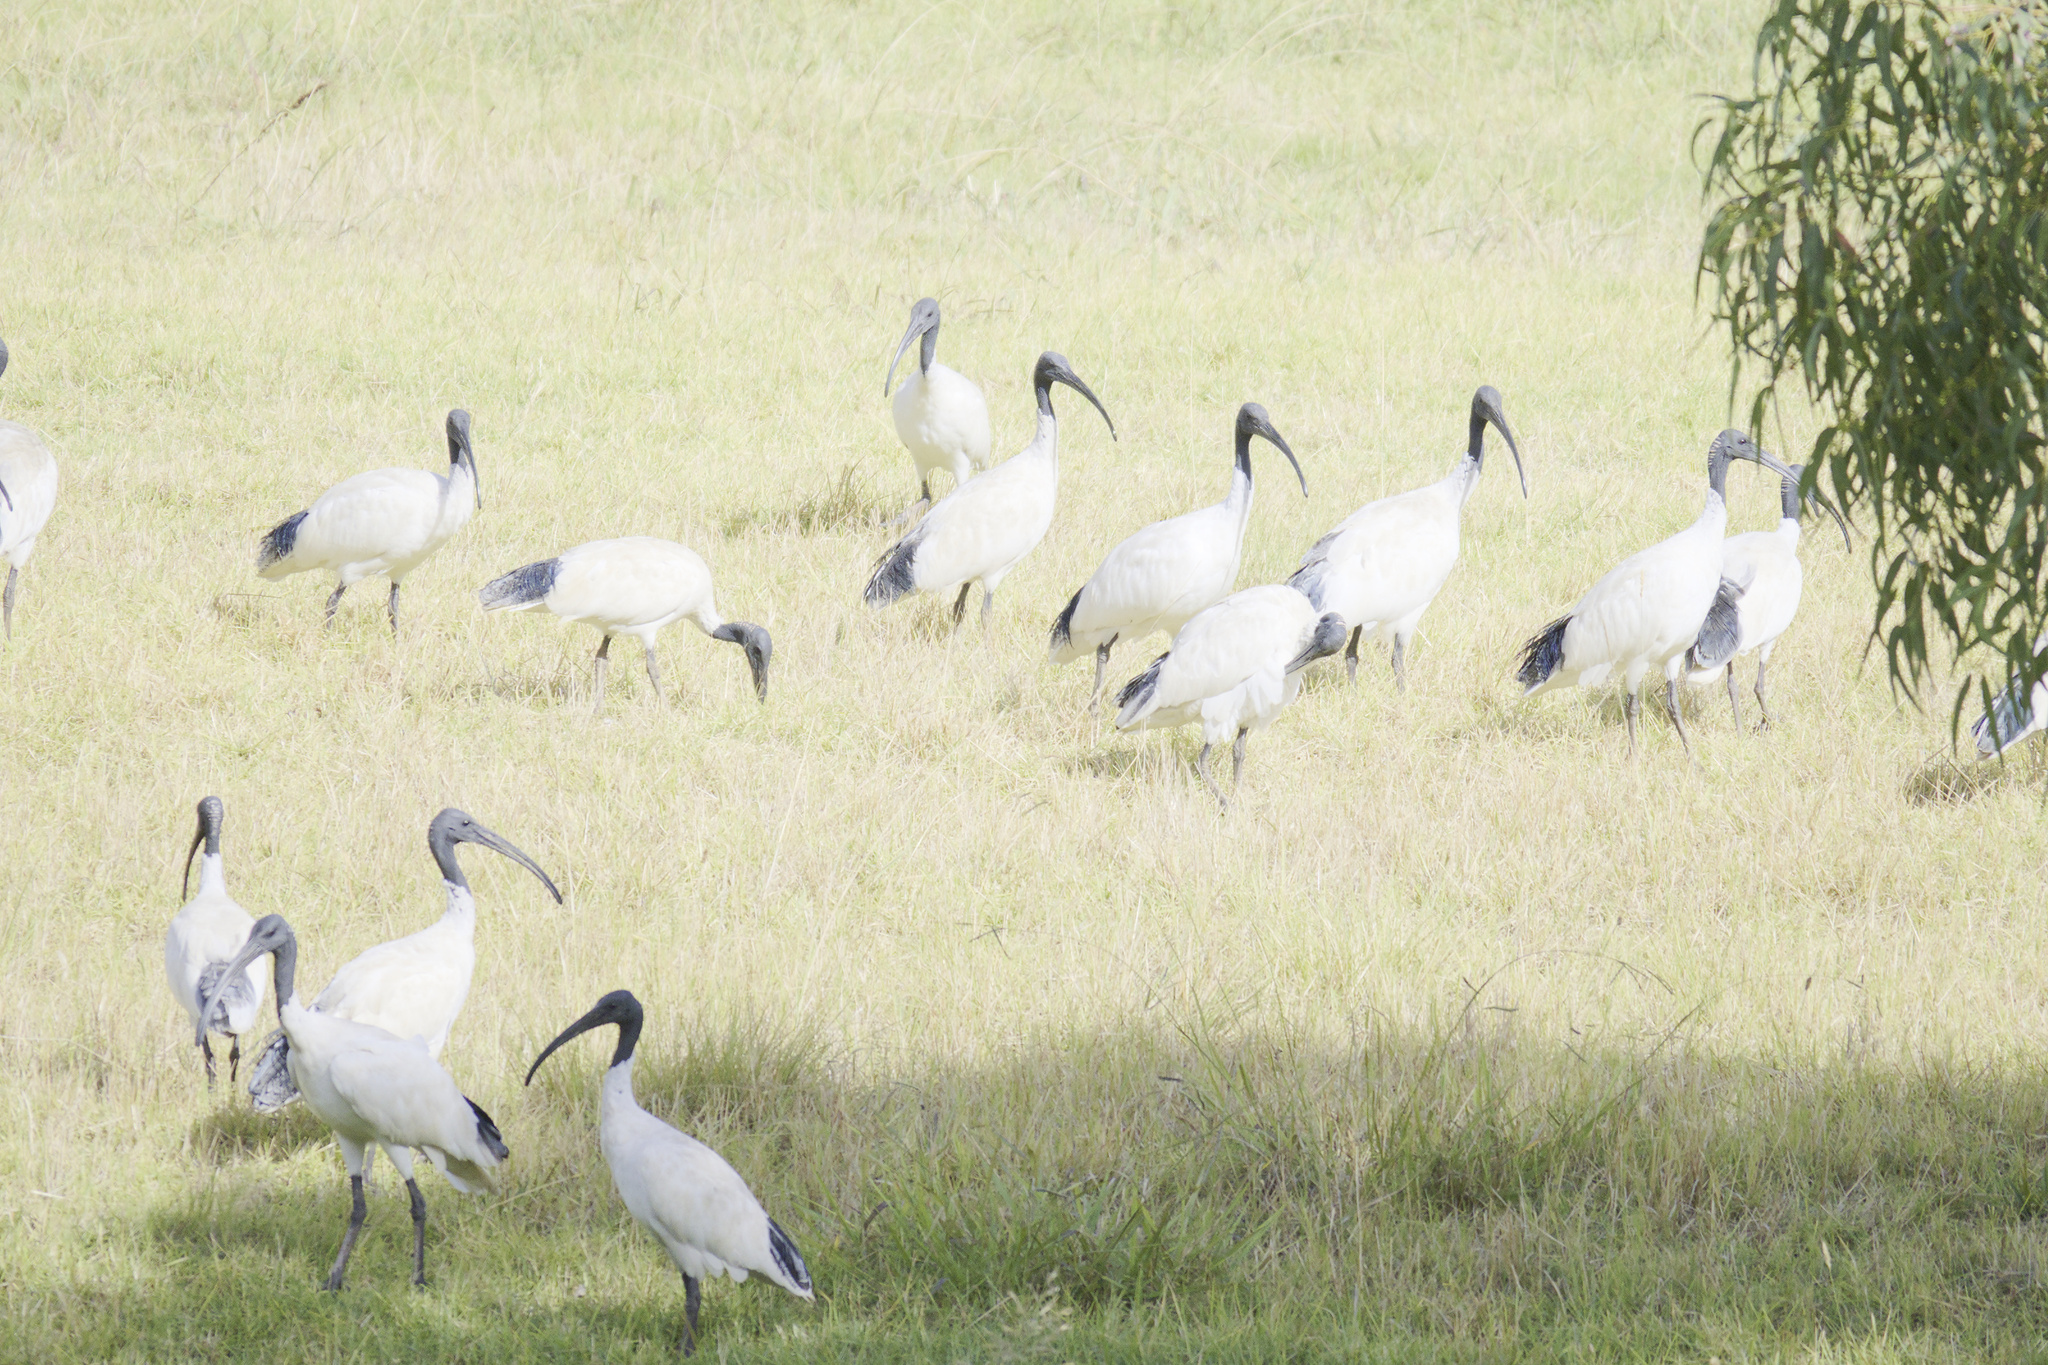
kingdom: Animalia
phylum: Chordata
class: Aves
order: Pelecaniformes
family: Threskiornithidae
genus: Threskiornis
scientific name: Threskiornis molucca
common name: Australian white ibis
